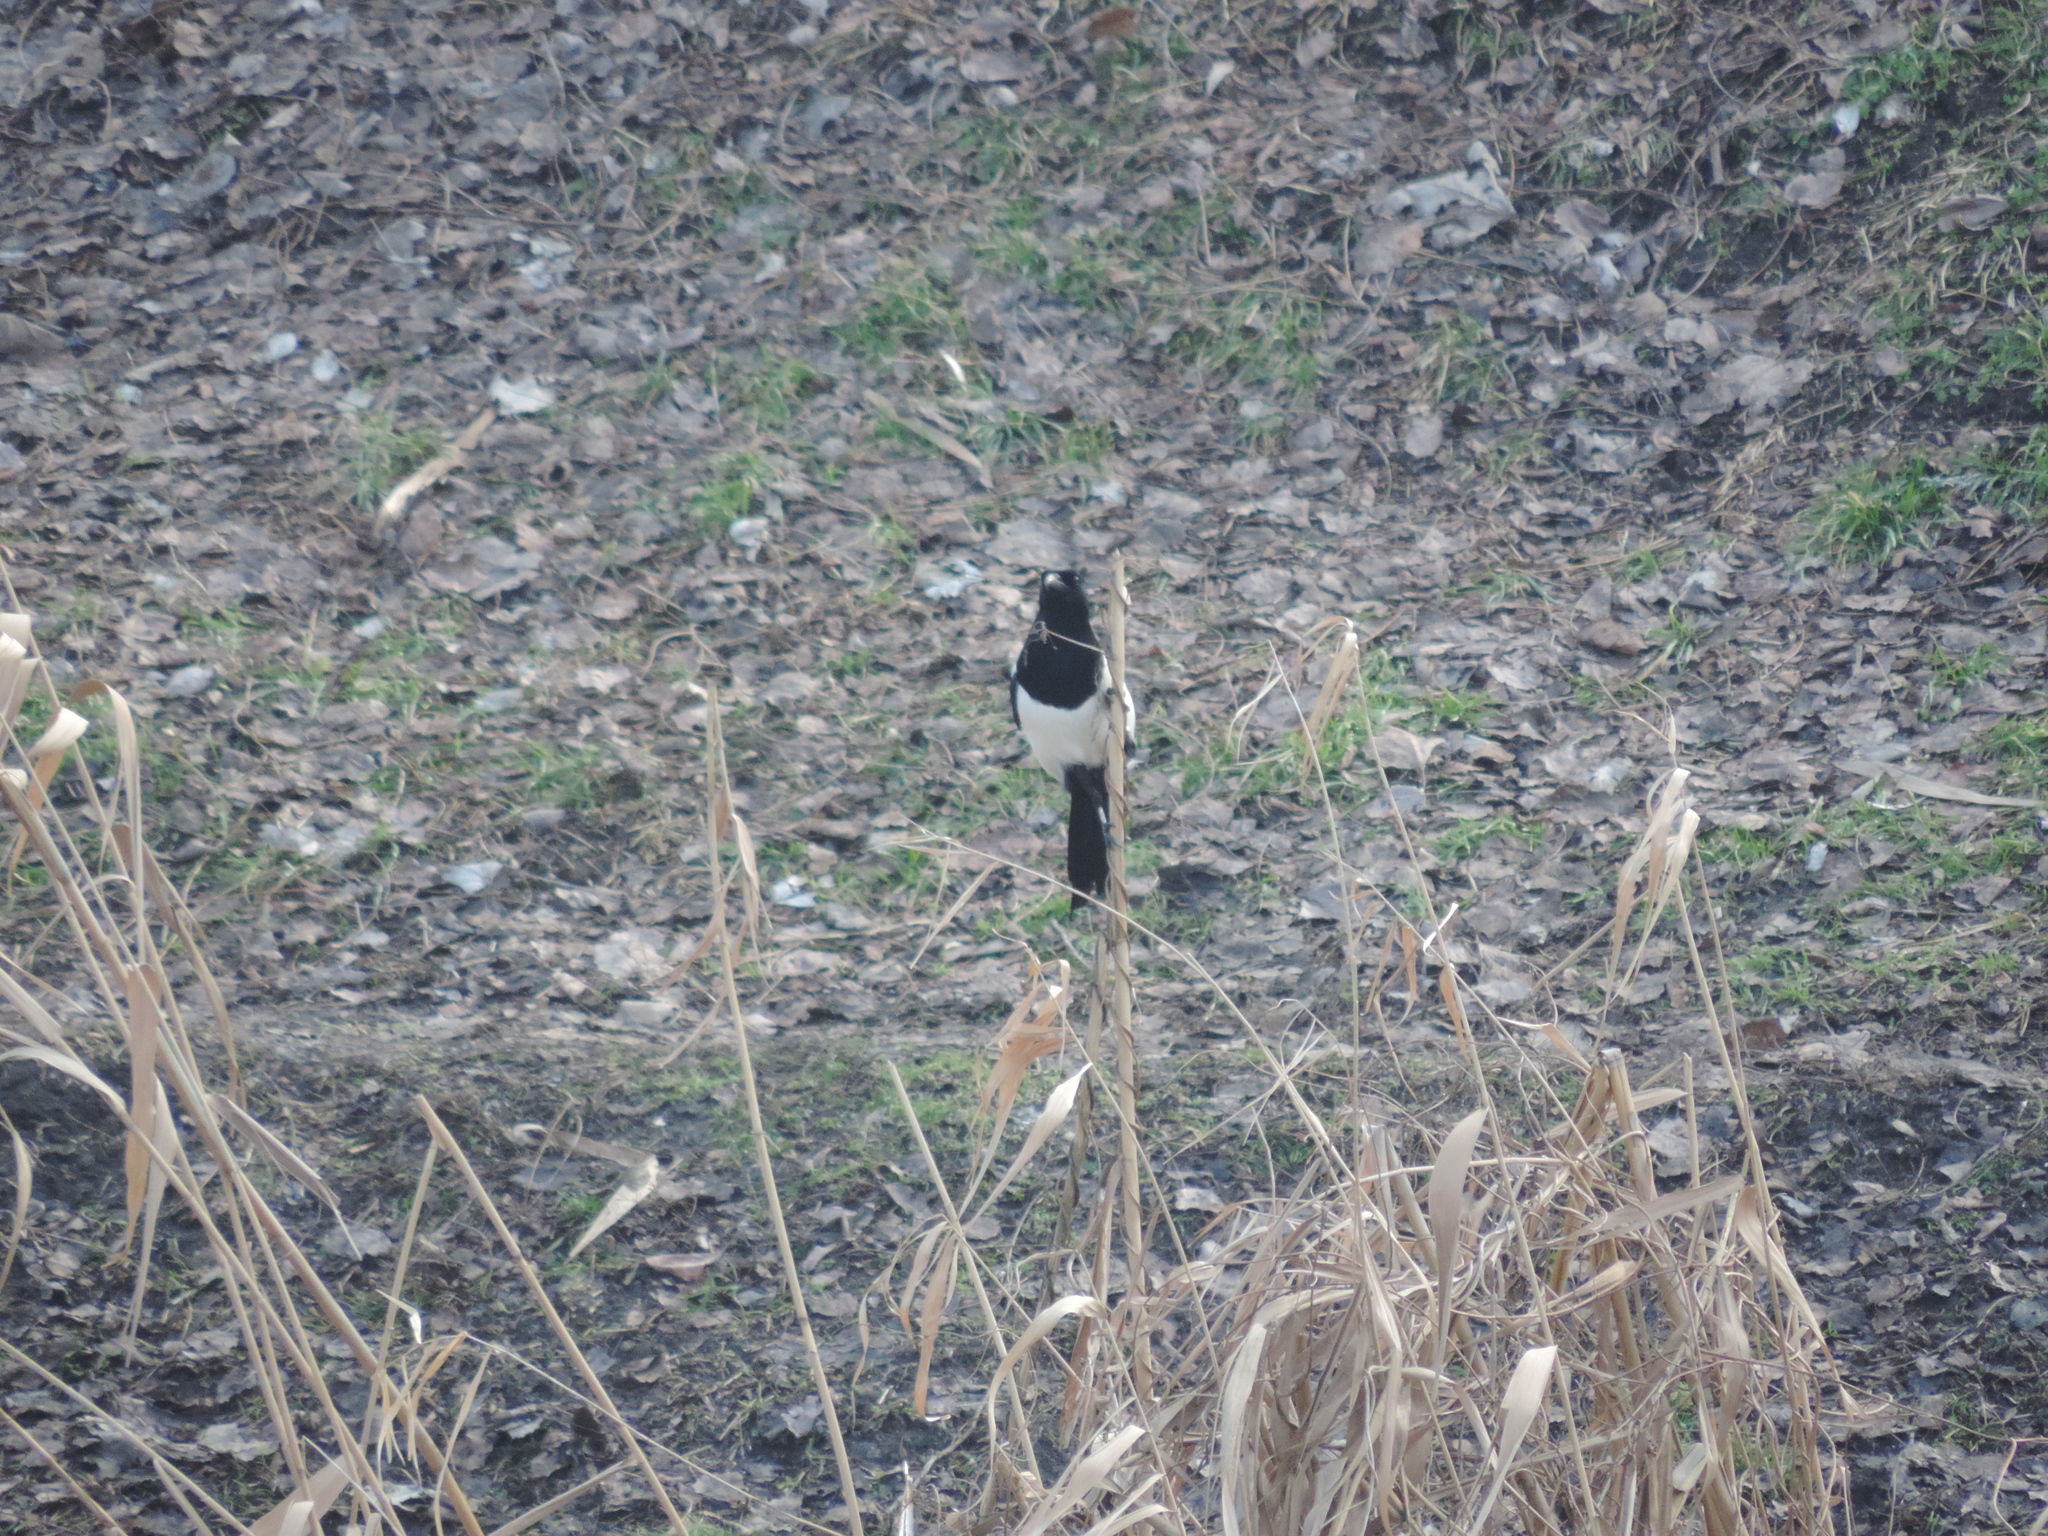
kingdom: Animalia
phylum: Chordata
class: Aves
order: Passeriformes
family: Corvidae
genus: Pica
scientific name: Pica pica
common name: Eurasian magpie
